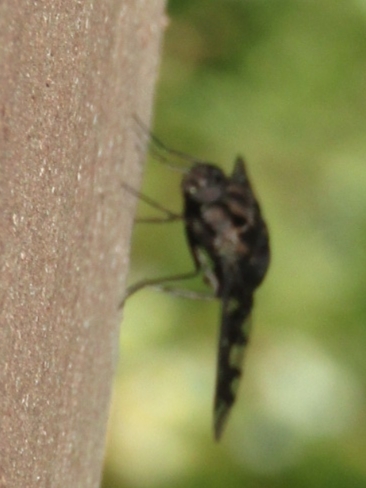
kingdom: Animalia
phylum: Arthropoda
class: Insecta
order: Diptera
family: Bombyliidae
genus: Xenox
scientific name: Xenox tigrinus
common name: Tiger bee fly
